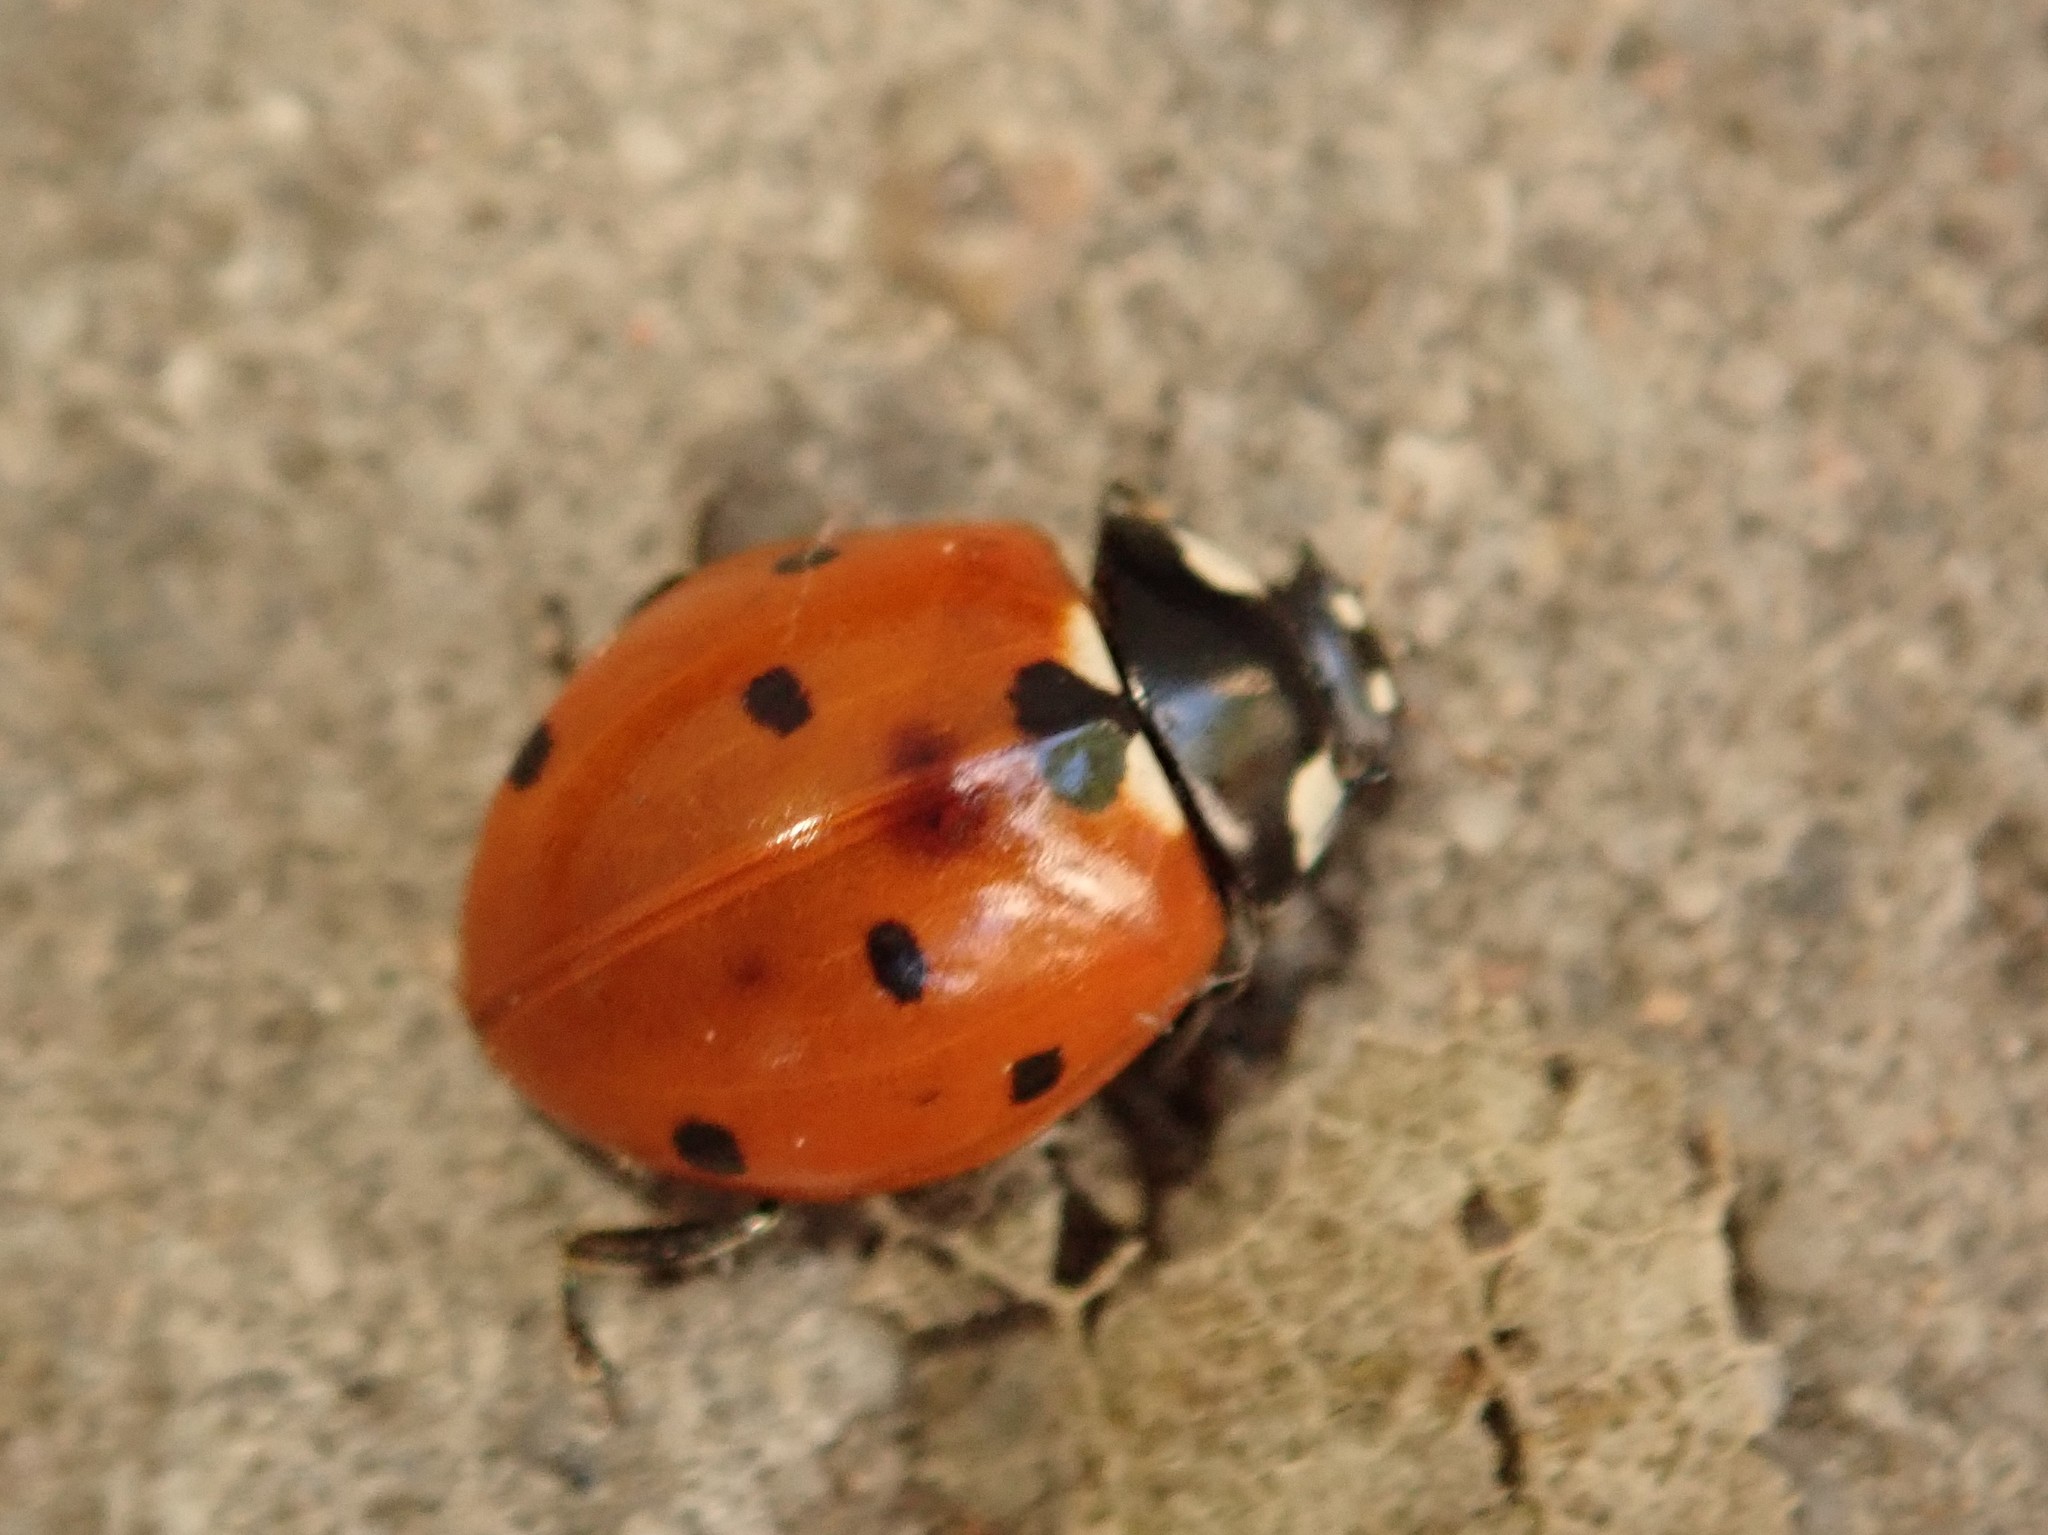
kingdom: Animalia
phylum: Arthropoda
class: Insecta
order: Coleoptera
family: Coccinellidae
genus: Coccinella
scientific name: Coccinella septempunctata
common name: Sevenspotted lady beetle
